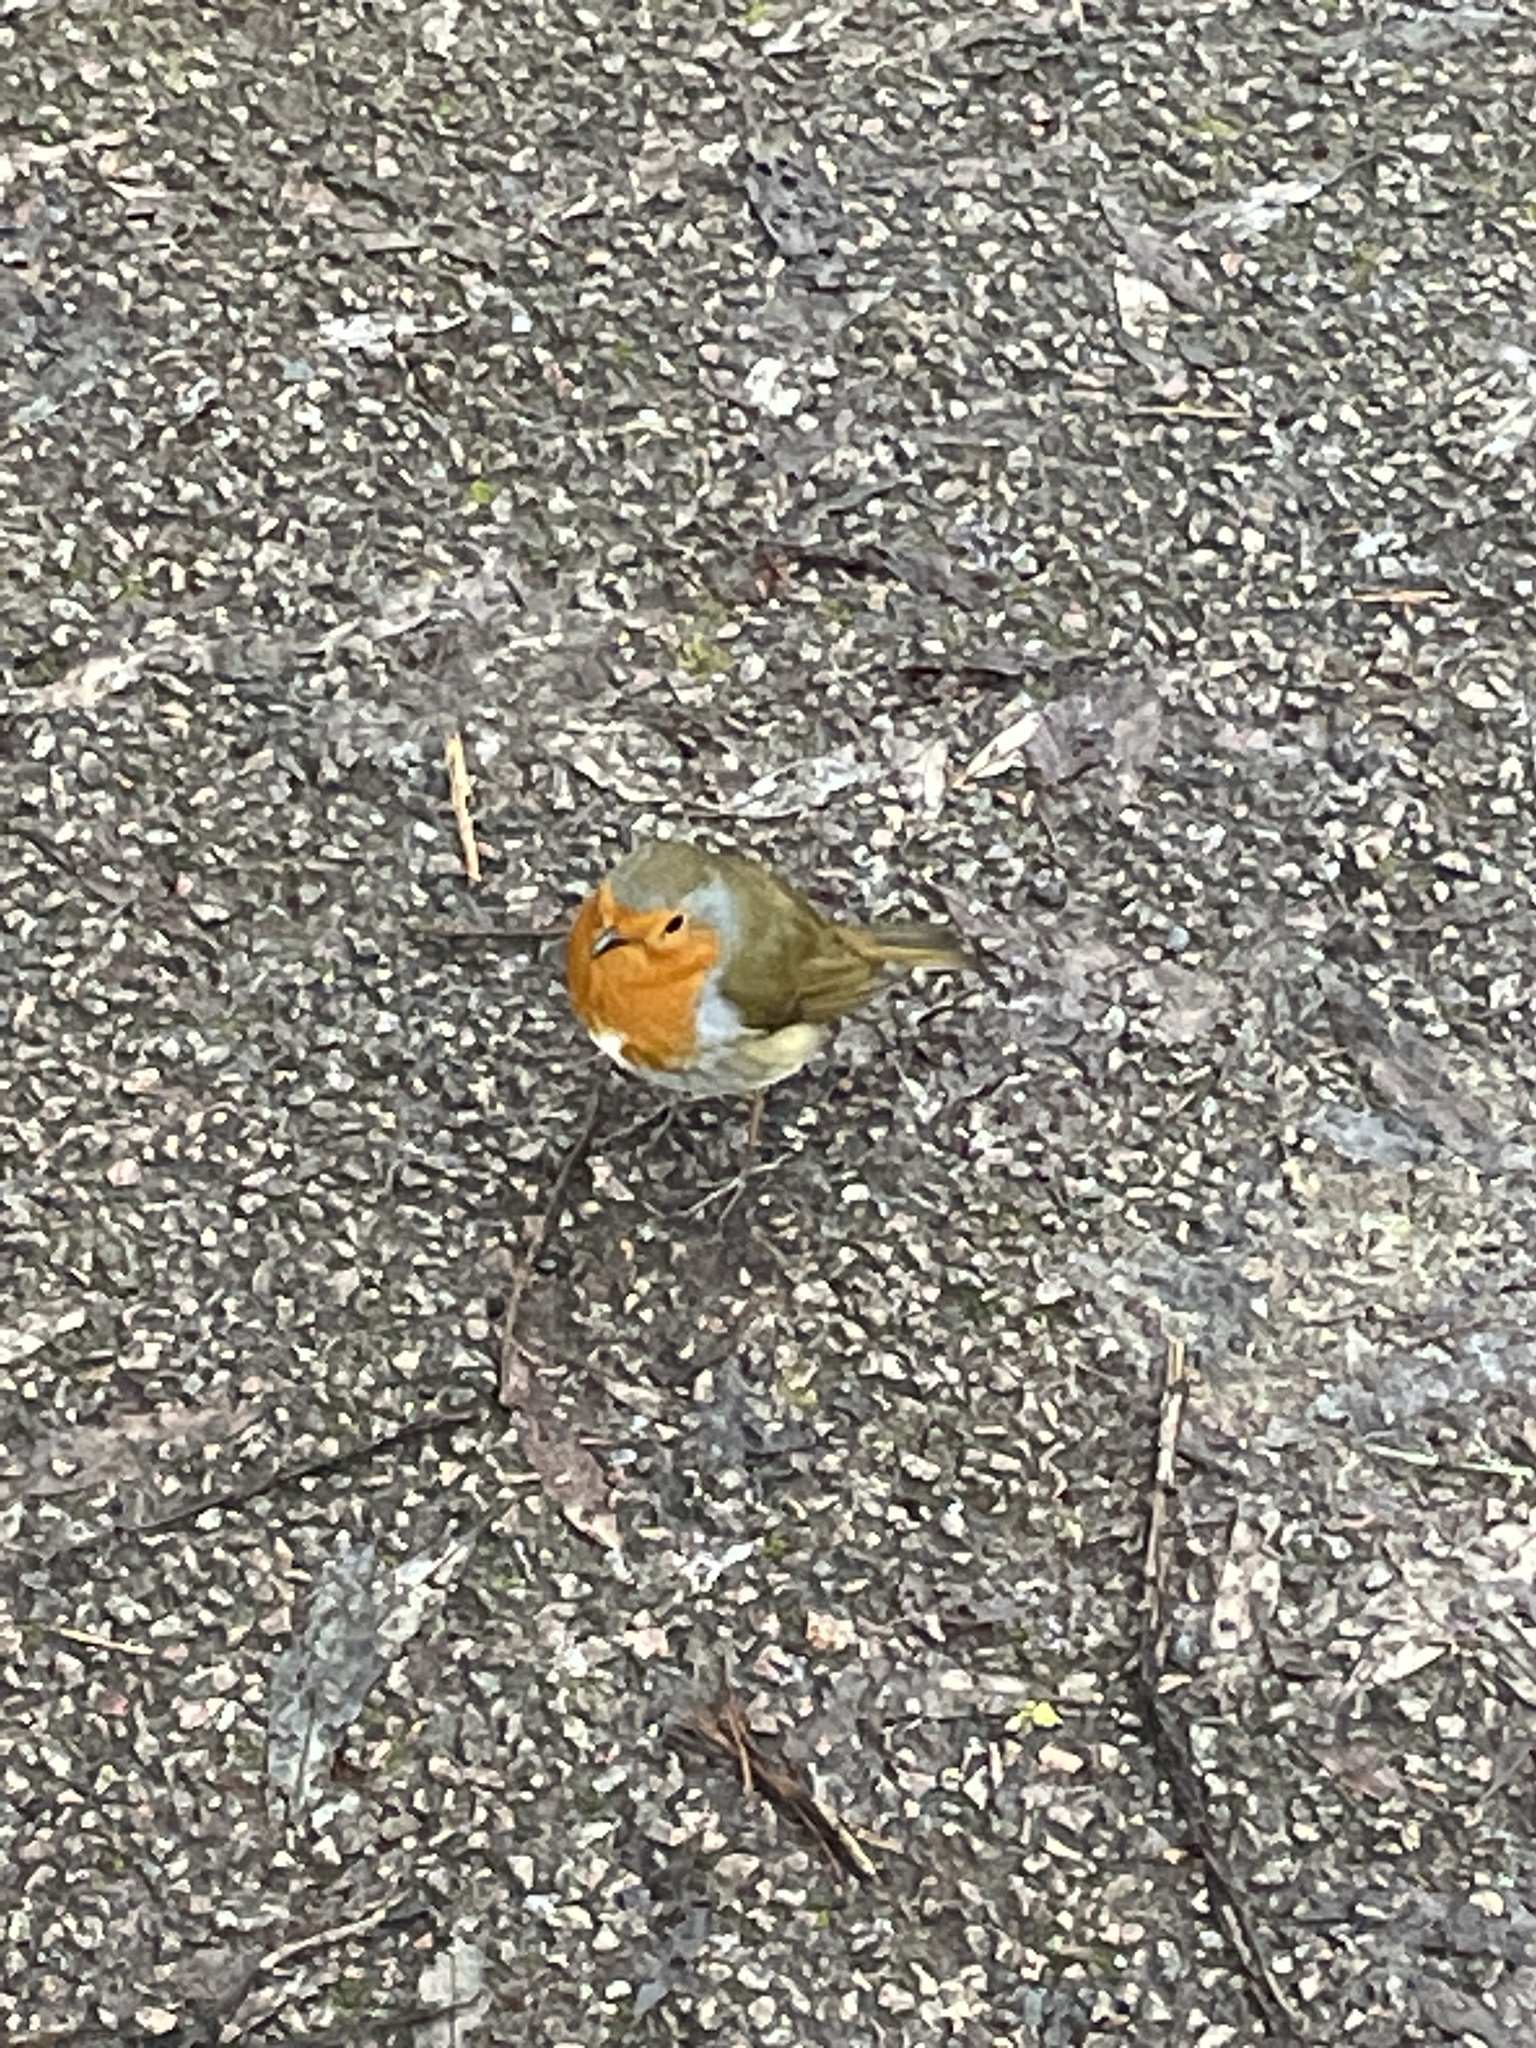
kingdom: Animalia
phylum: Chordata
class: Aves
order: Passeriformes
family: Muscicapidae
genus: Erithacus
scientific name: Erithacus rubecula
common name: European robin
